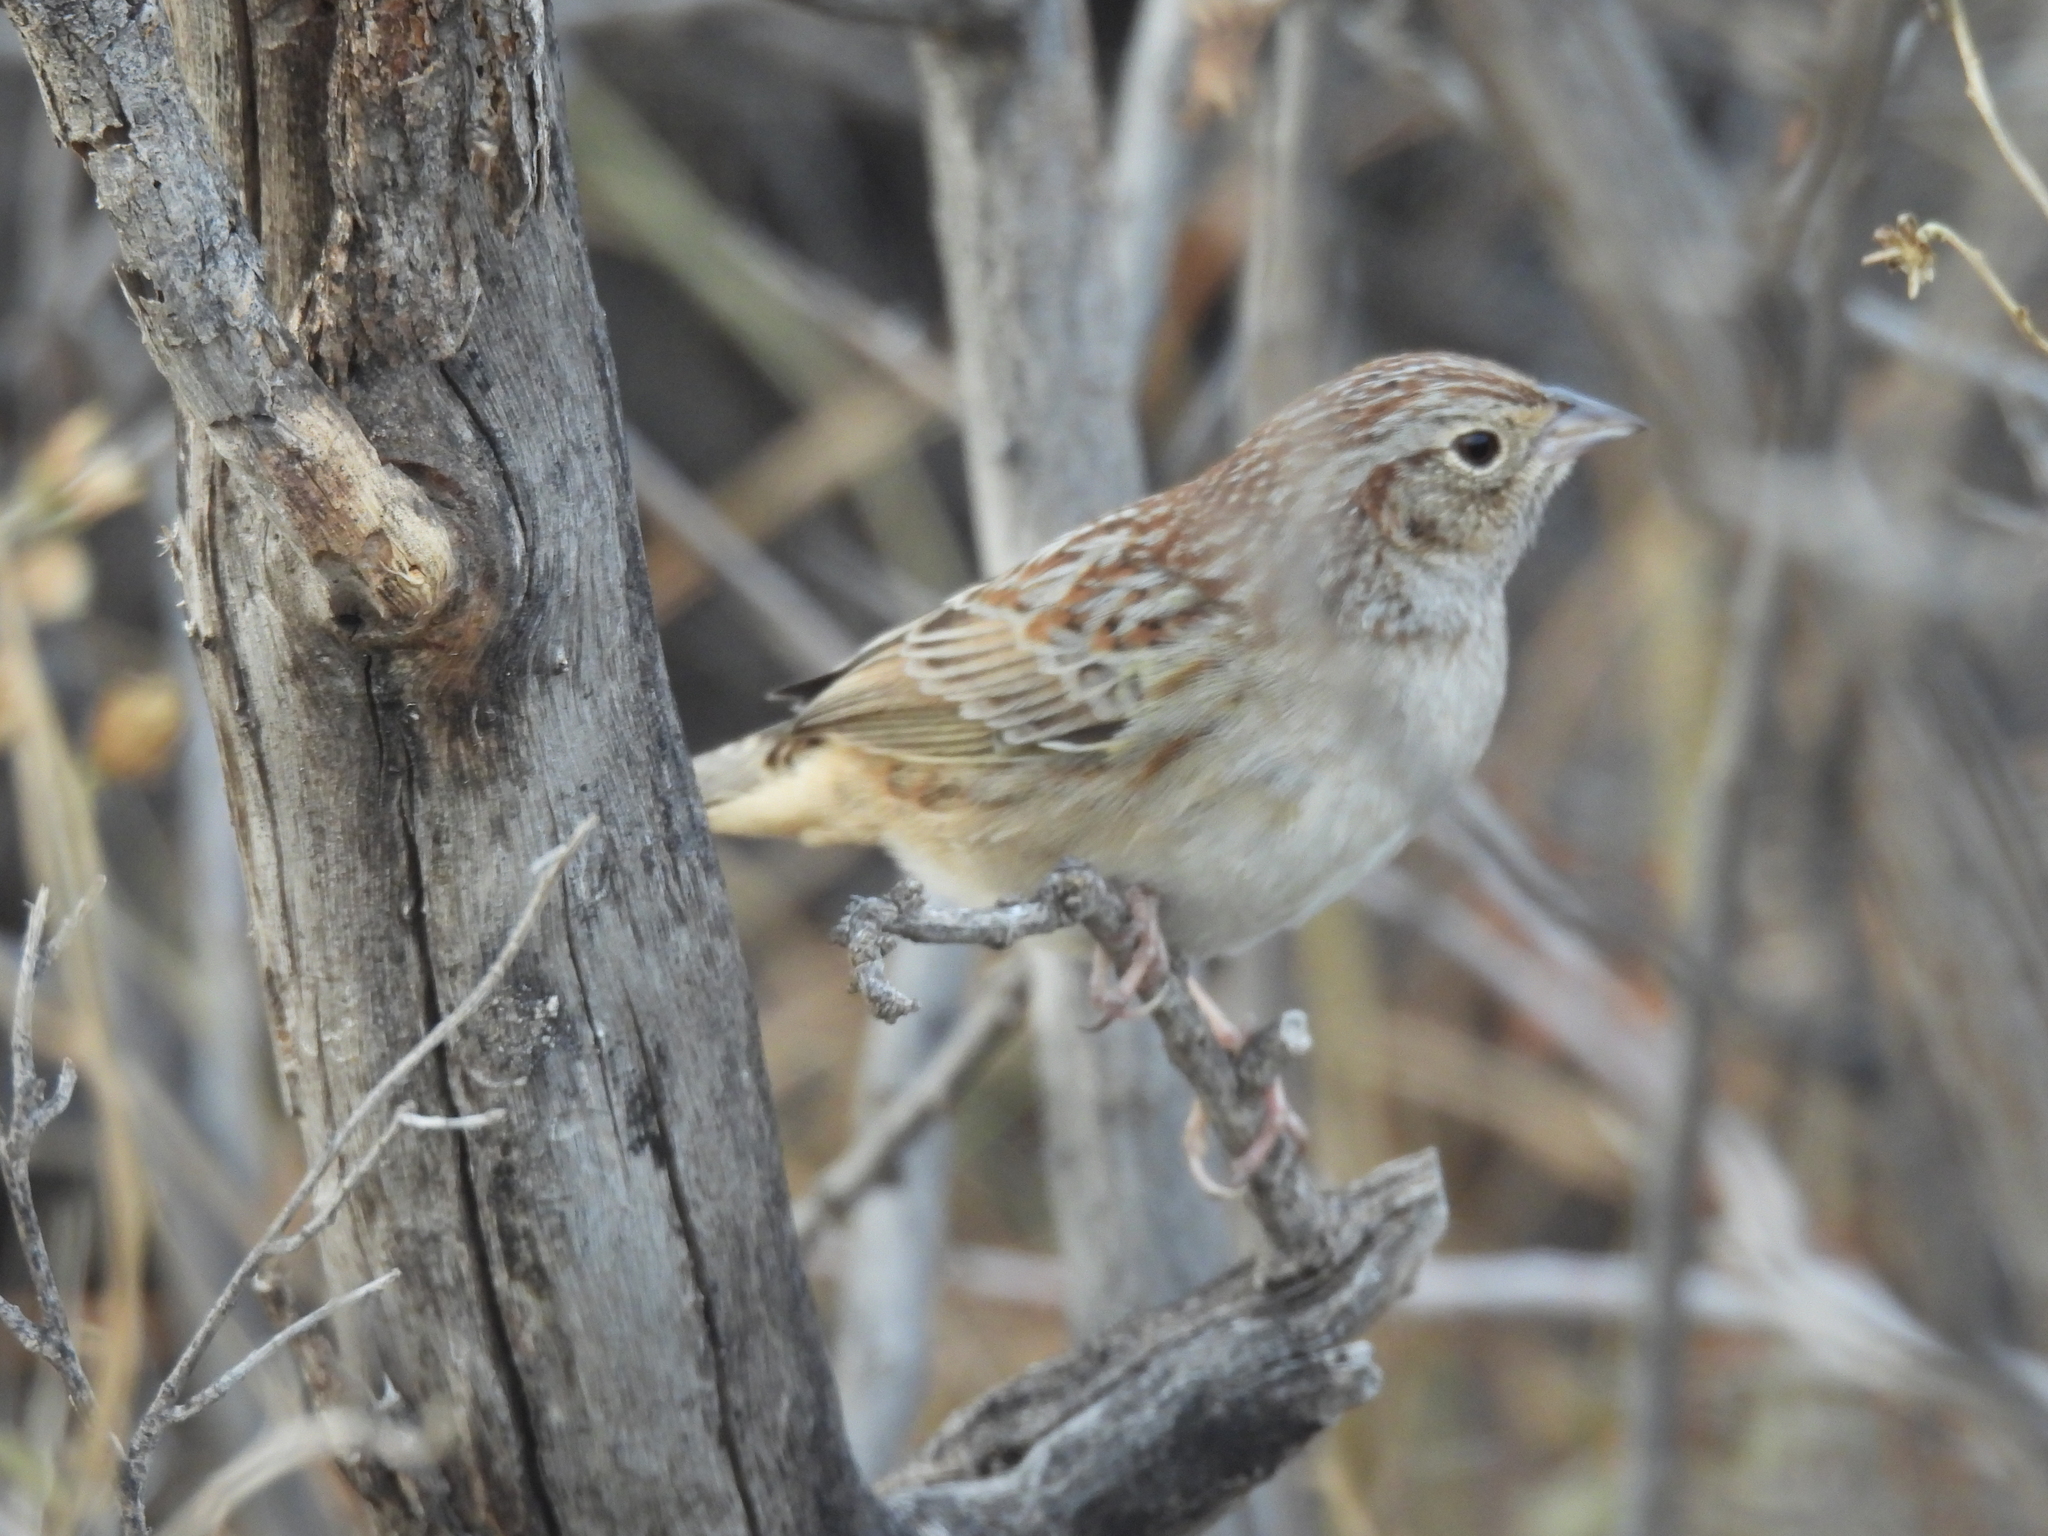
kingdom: Animalia
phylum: Chordata
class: Aves
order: Passeriformes
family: Passerellidae
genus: Peucaea
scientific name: Peucaea cassinii
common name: Cassin's sparrow
